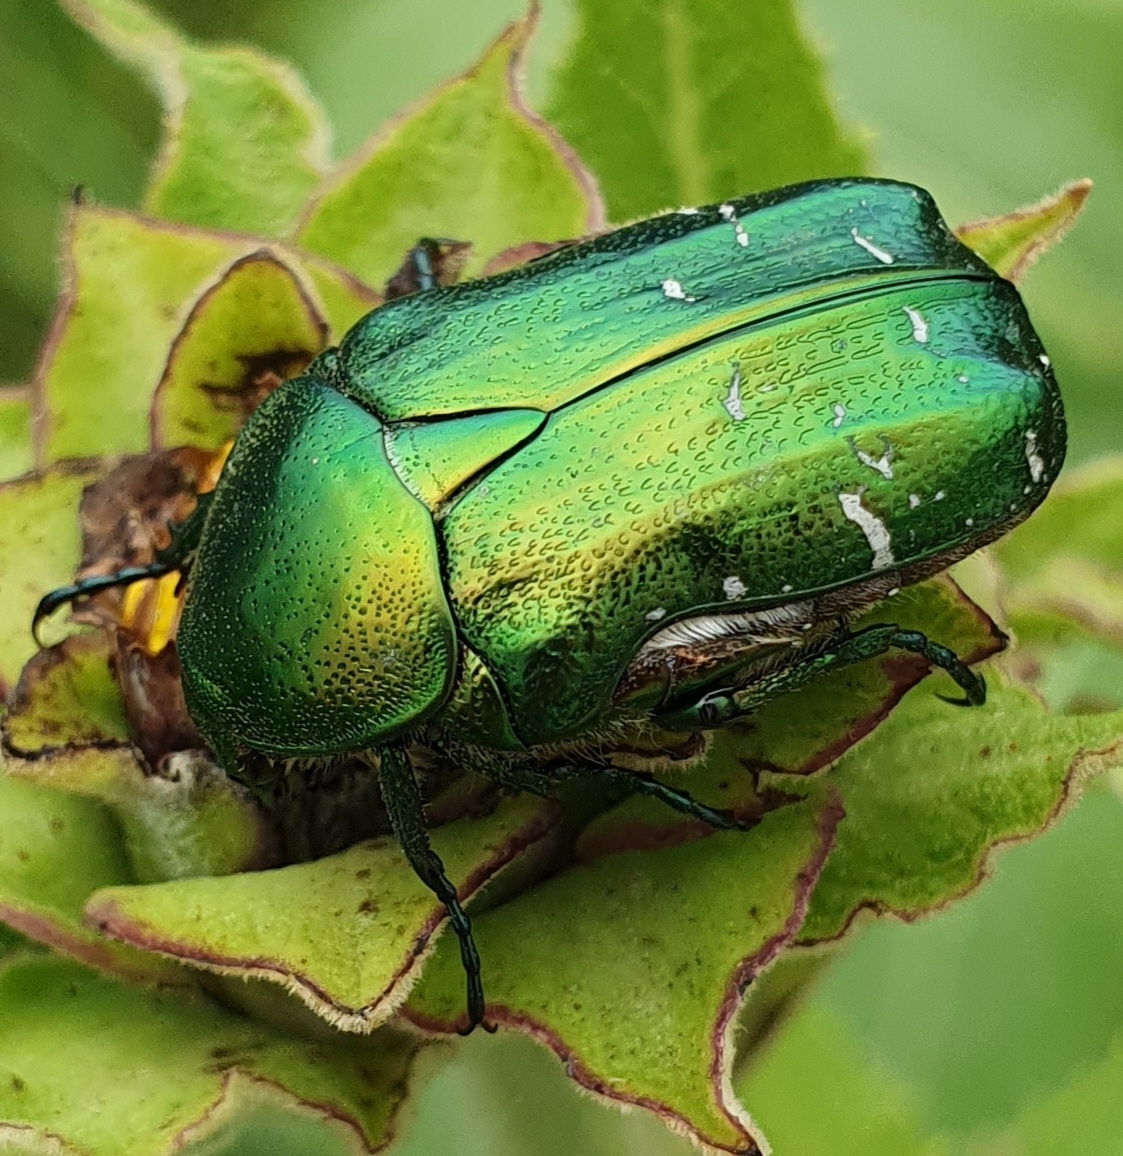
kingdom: Animalia
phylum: Arthropoda
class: Insecta
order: Coleoptera
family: Scarabaeidae
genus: Cetonia
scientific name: Cetonia aurata
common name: Rose chafer
